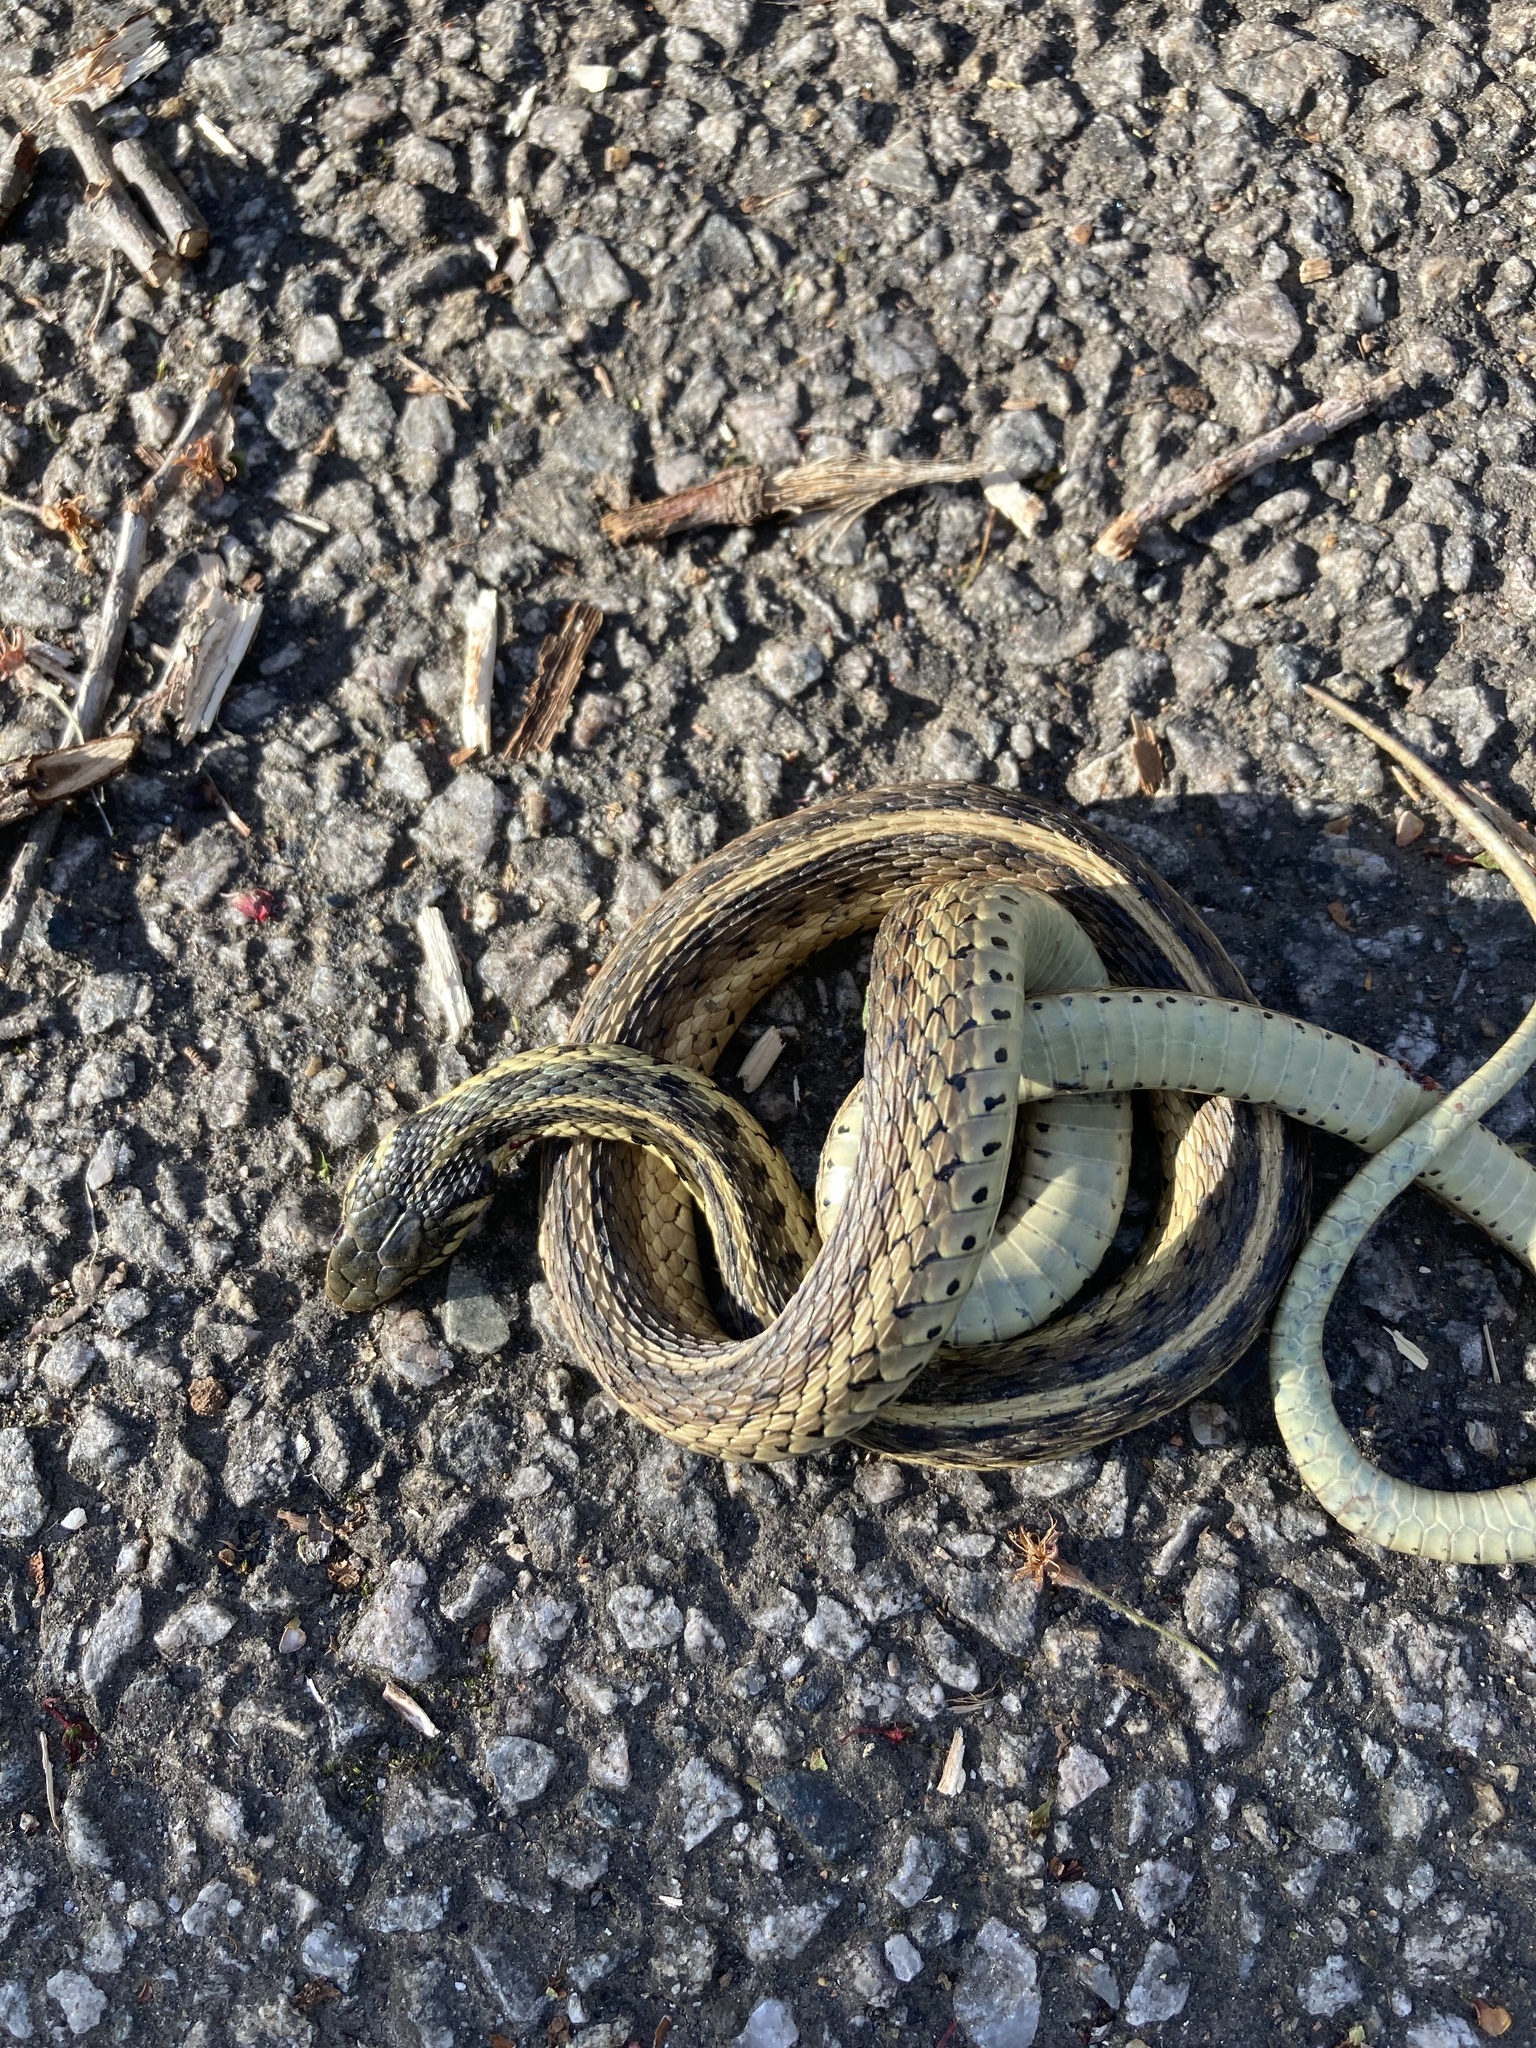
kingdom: Animalia
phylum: Chordata
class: Squamata
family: Colubridae
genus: Thamnophis
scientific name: Thamnophis sirtalis
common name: Common garter snake
